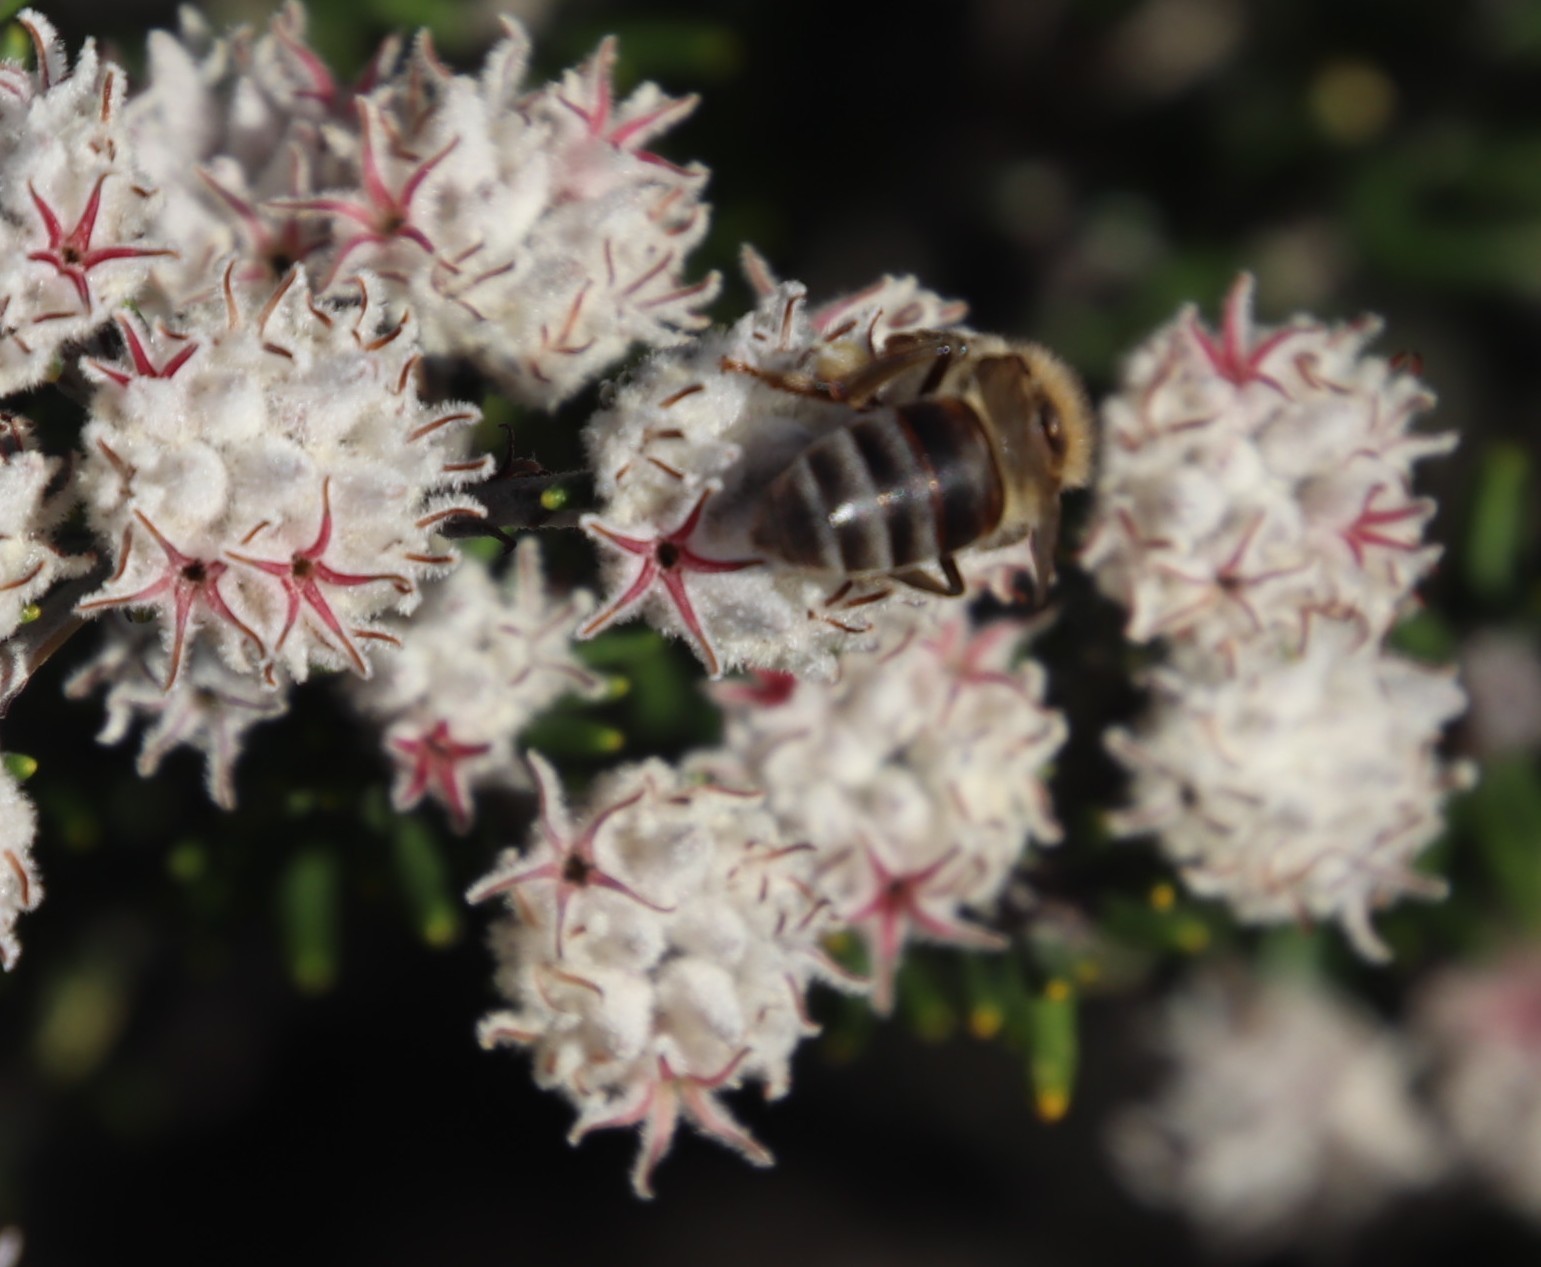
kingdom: Animalia
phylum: Arthropoda
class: Insecta
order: Hymenoptera
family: Apidae
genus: Apis
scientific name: Apis mellifera
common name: Honey bee
